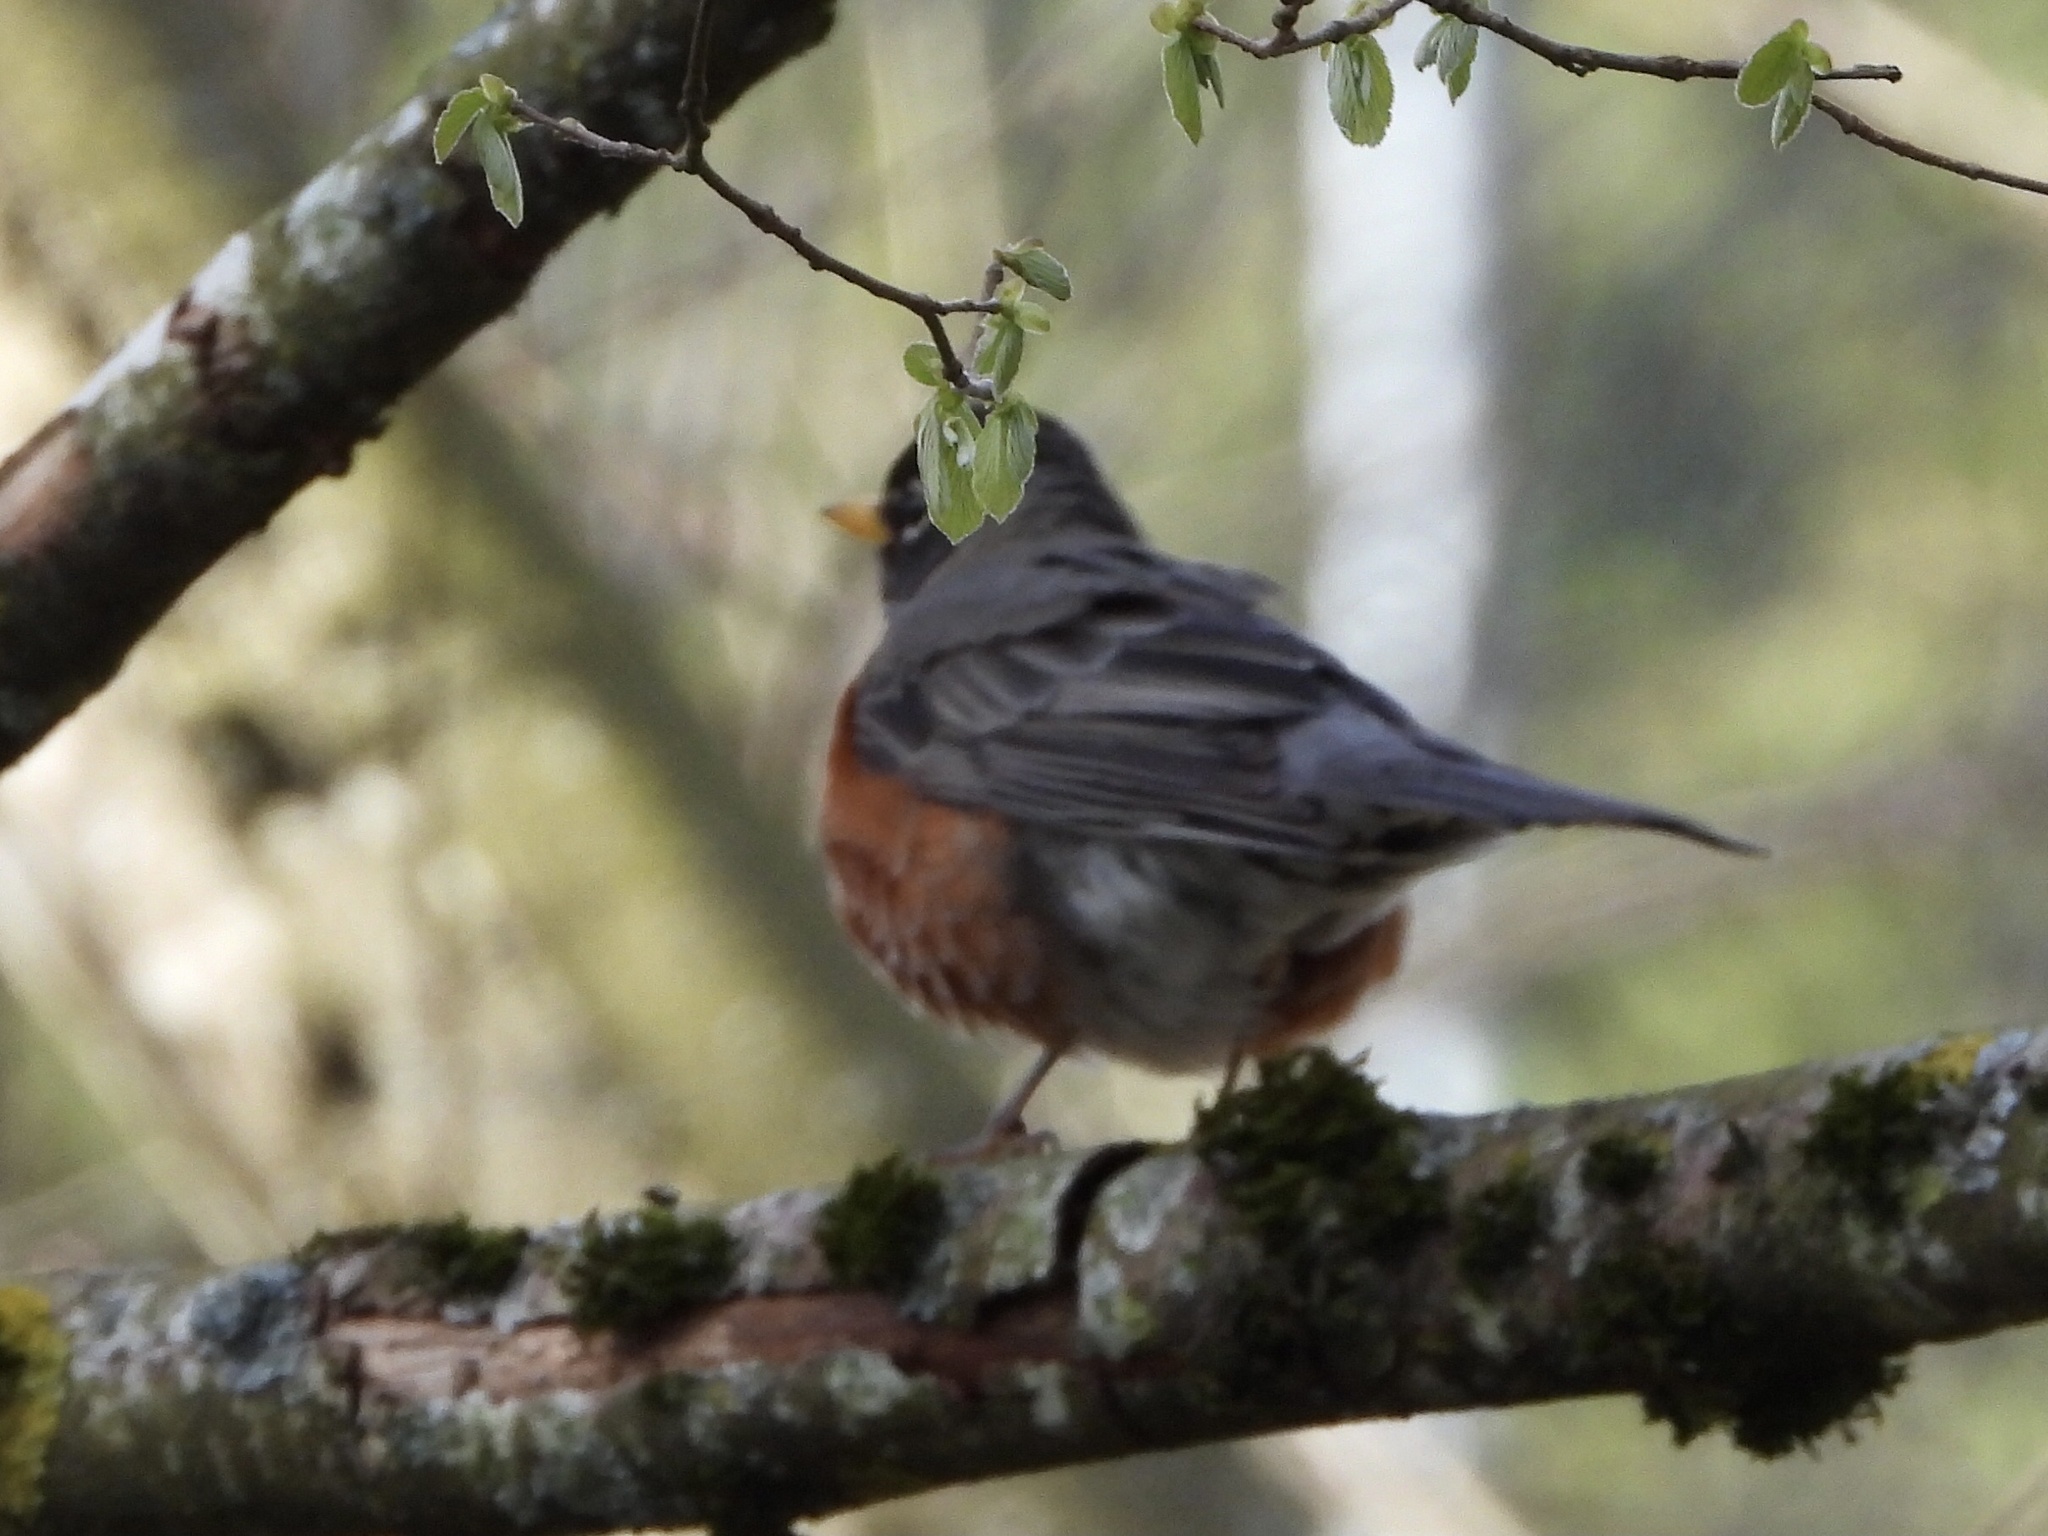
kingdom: Animalia
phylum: Chordata
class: Aves
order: Passeriformes
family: Turdidae
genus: Turdus
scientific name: Turdus migratorius
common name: American robin
